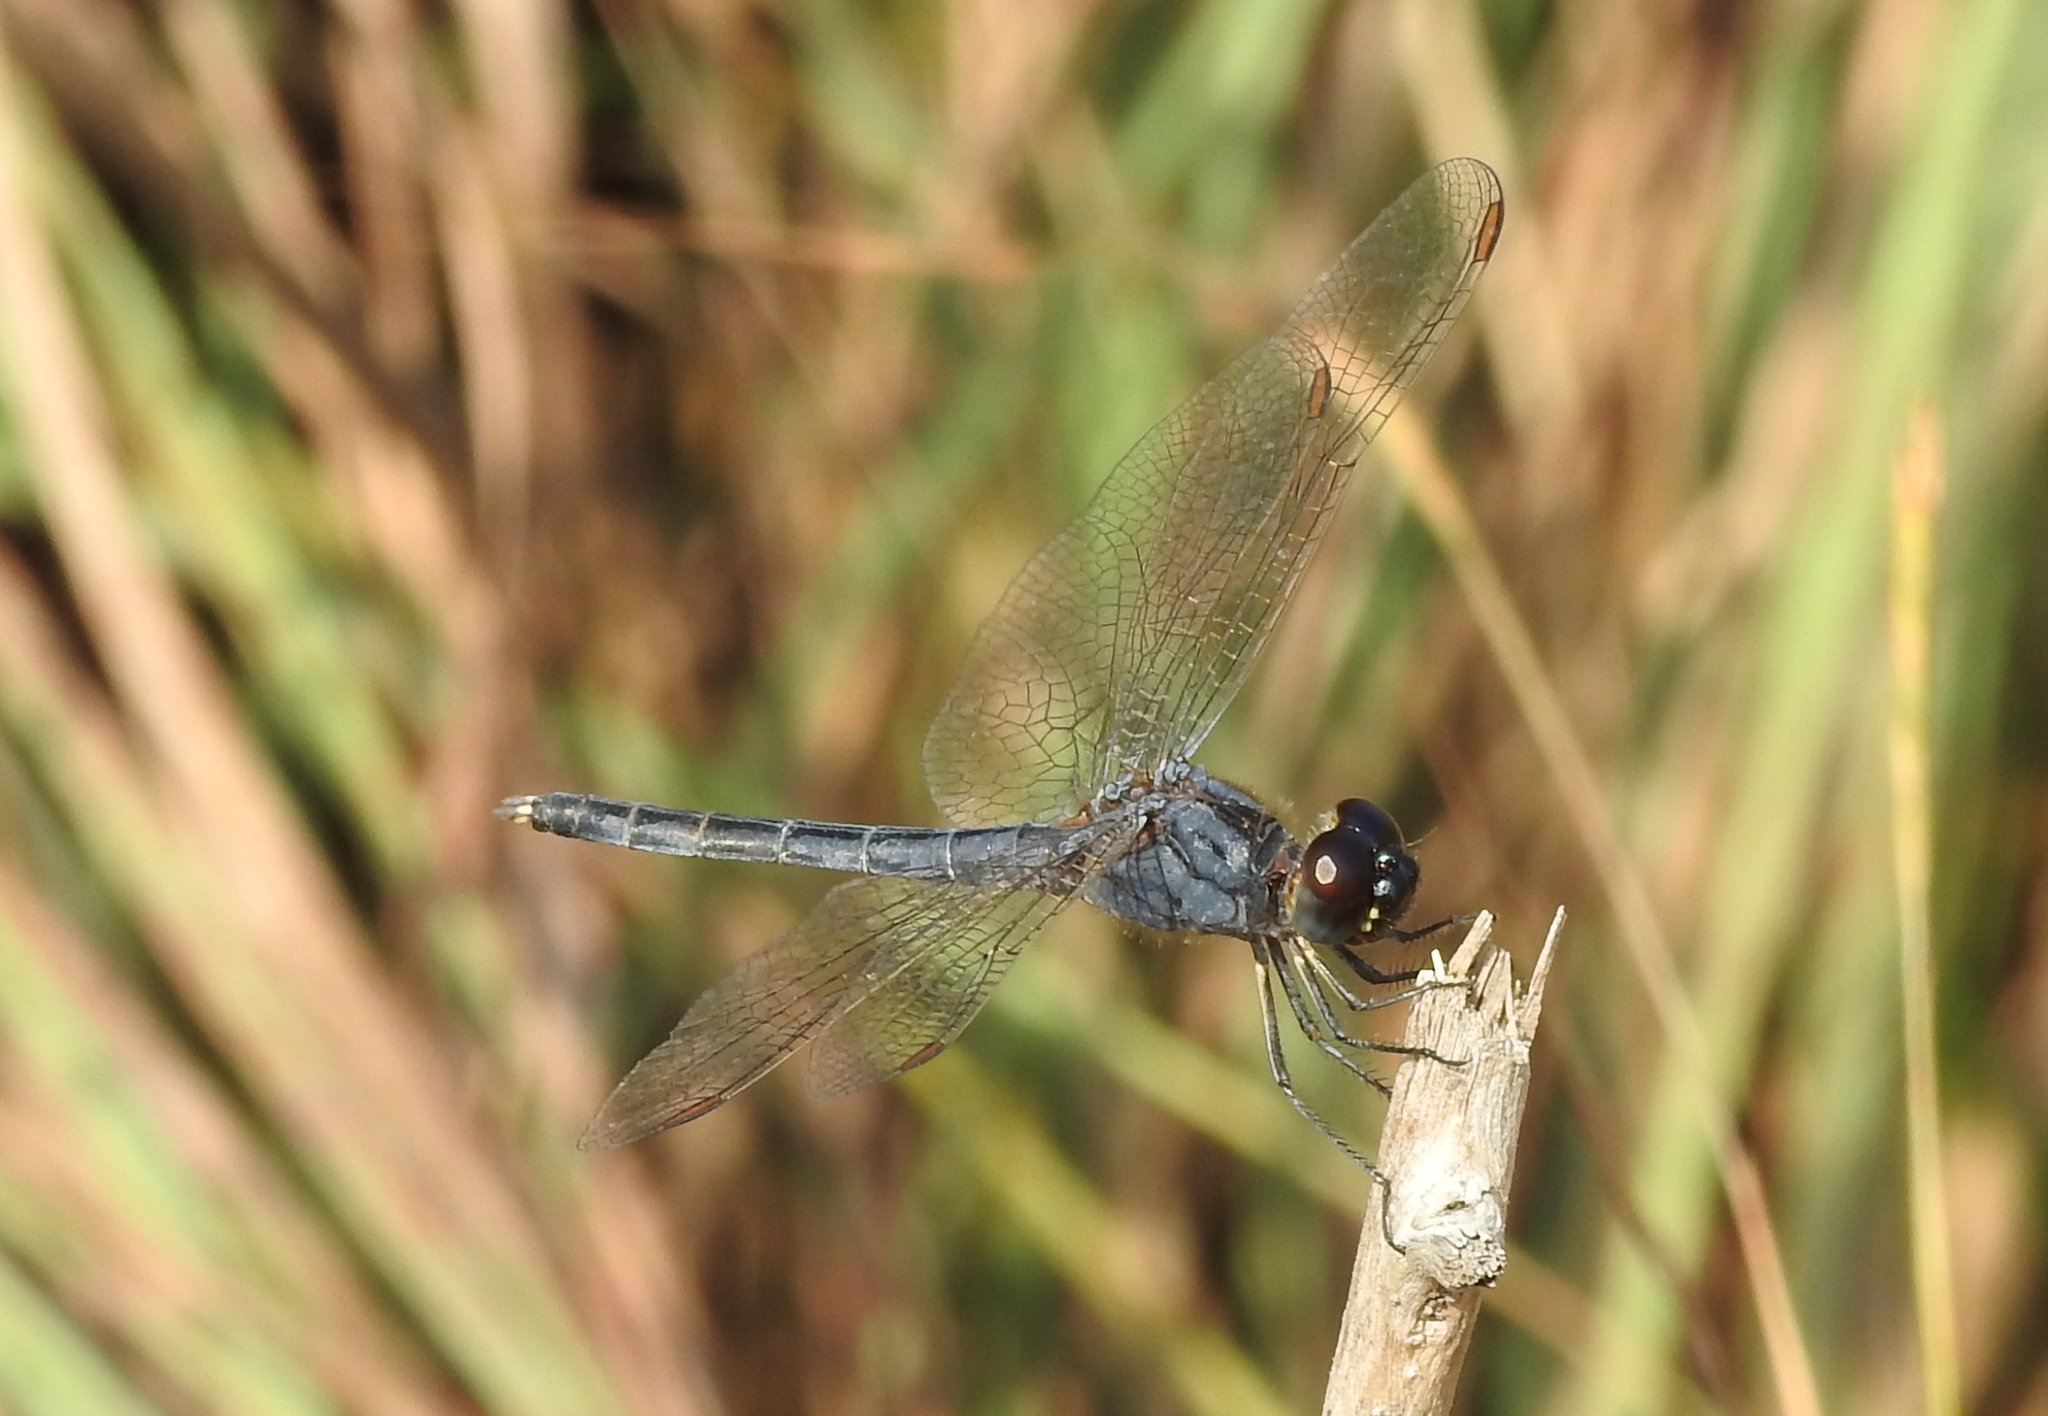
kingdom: Animalia
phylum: Arthropoda
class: Insecta
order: Odonata
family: Libellulidae
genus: Indothemis
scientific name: Indothemis carnatica
